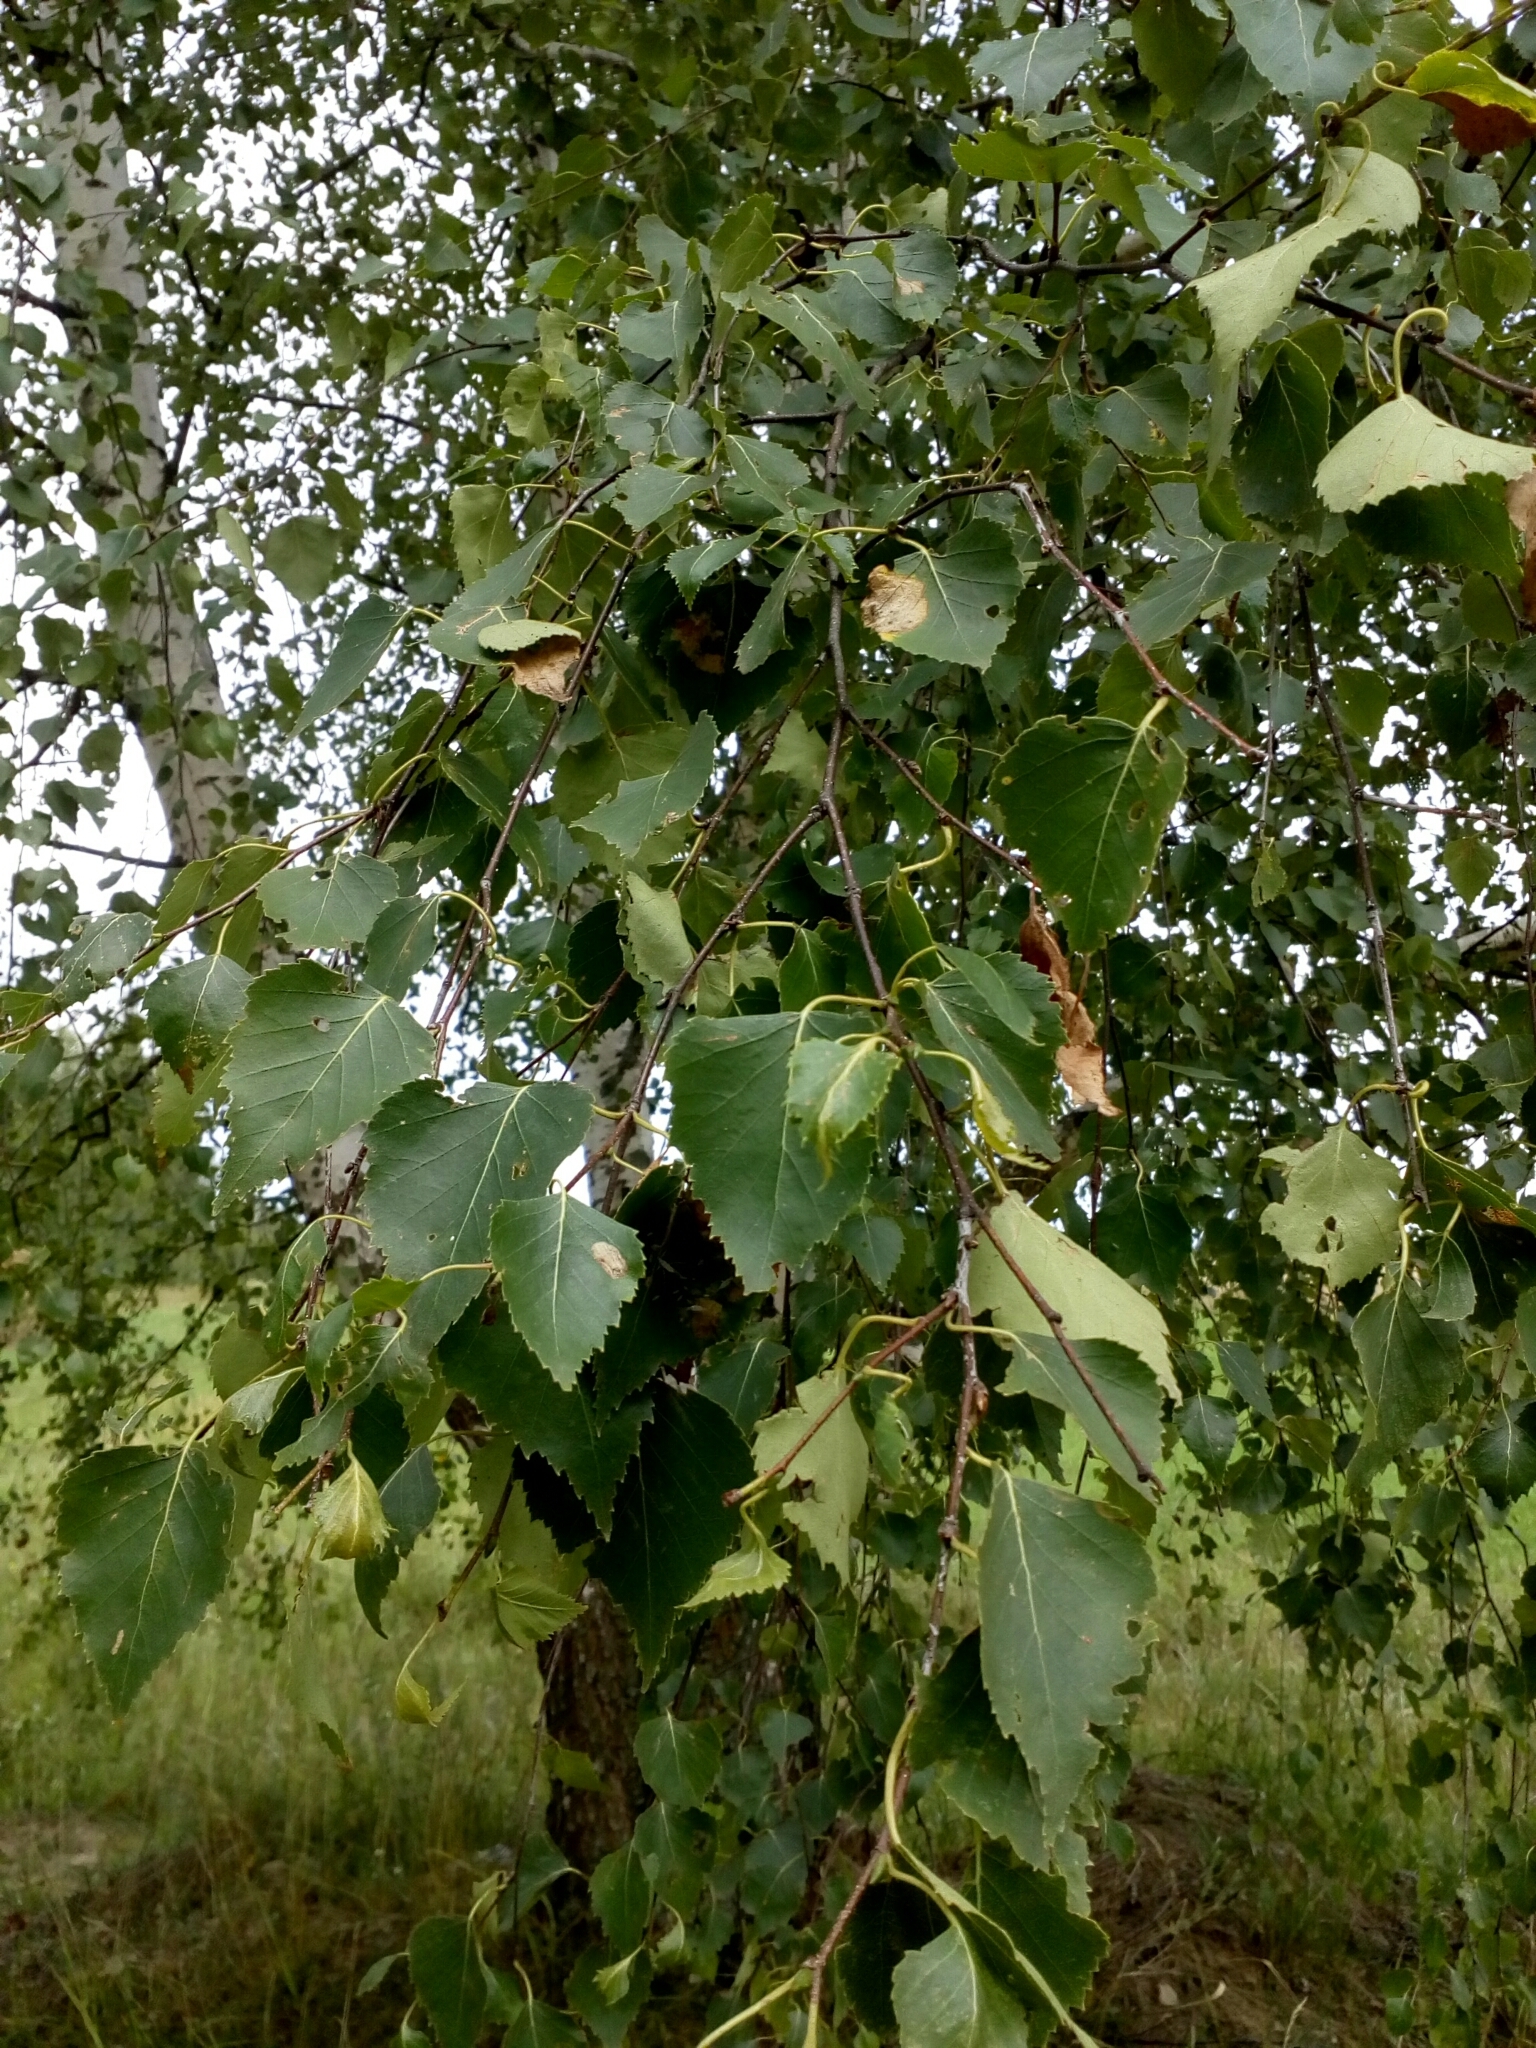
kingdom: Plantae
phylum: Tracheophyta
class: Magnoliopsida
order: Fagales
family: Betulaceae
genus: Betula
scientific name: Betula pendula
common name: Silver birch
